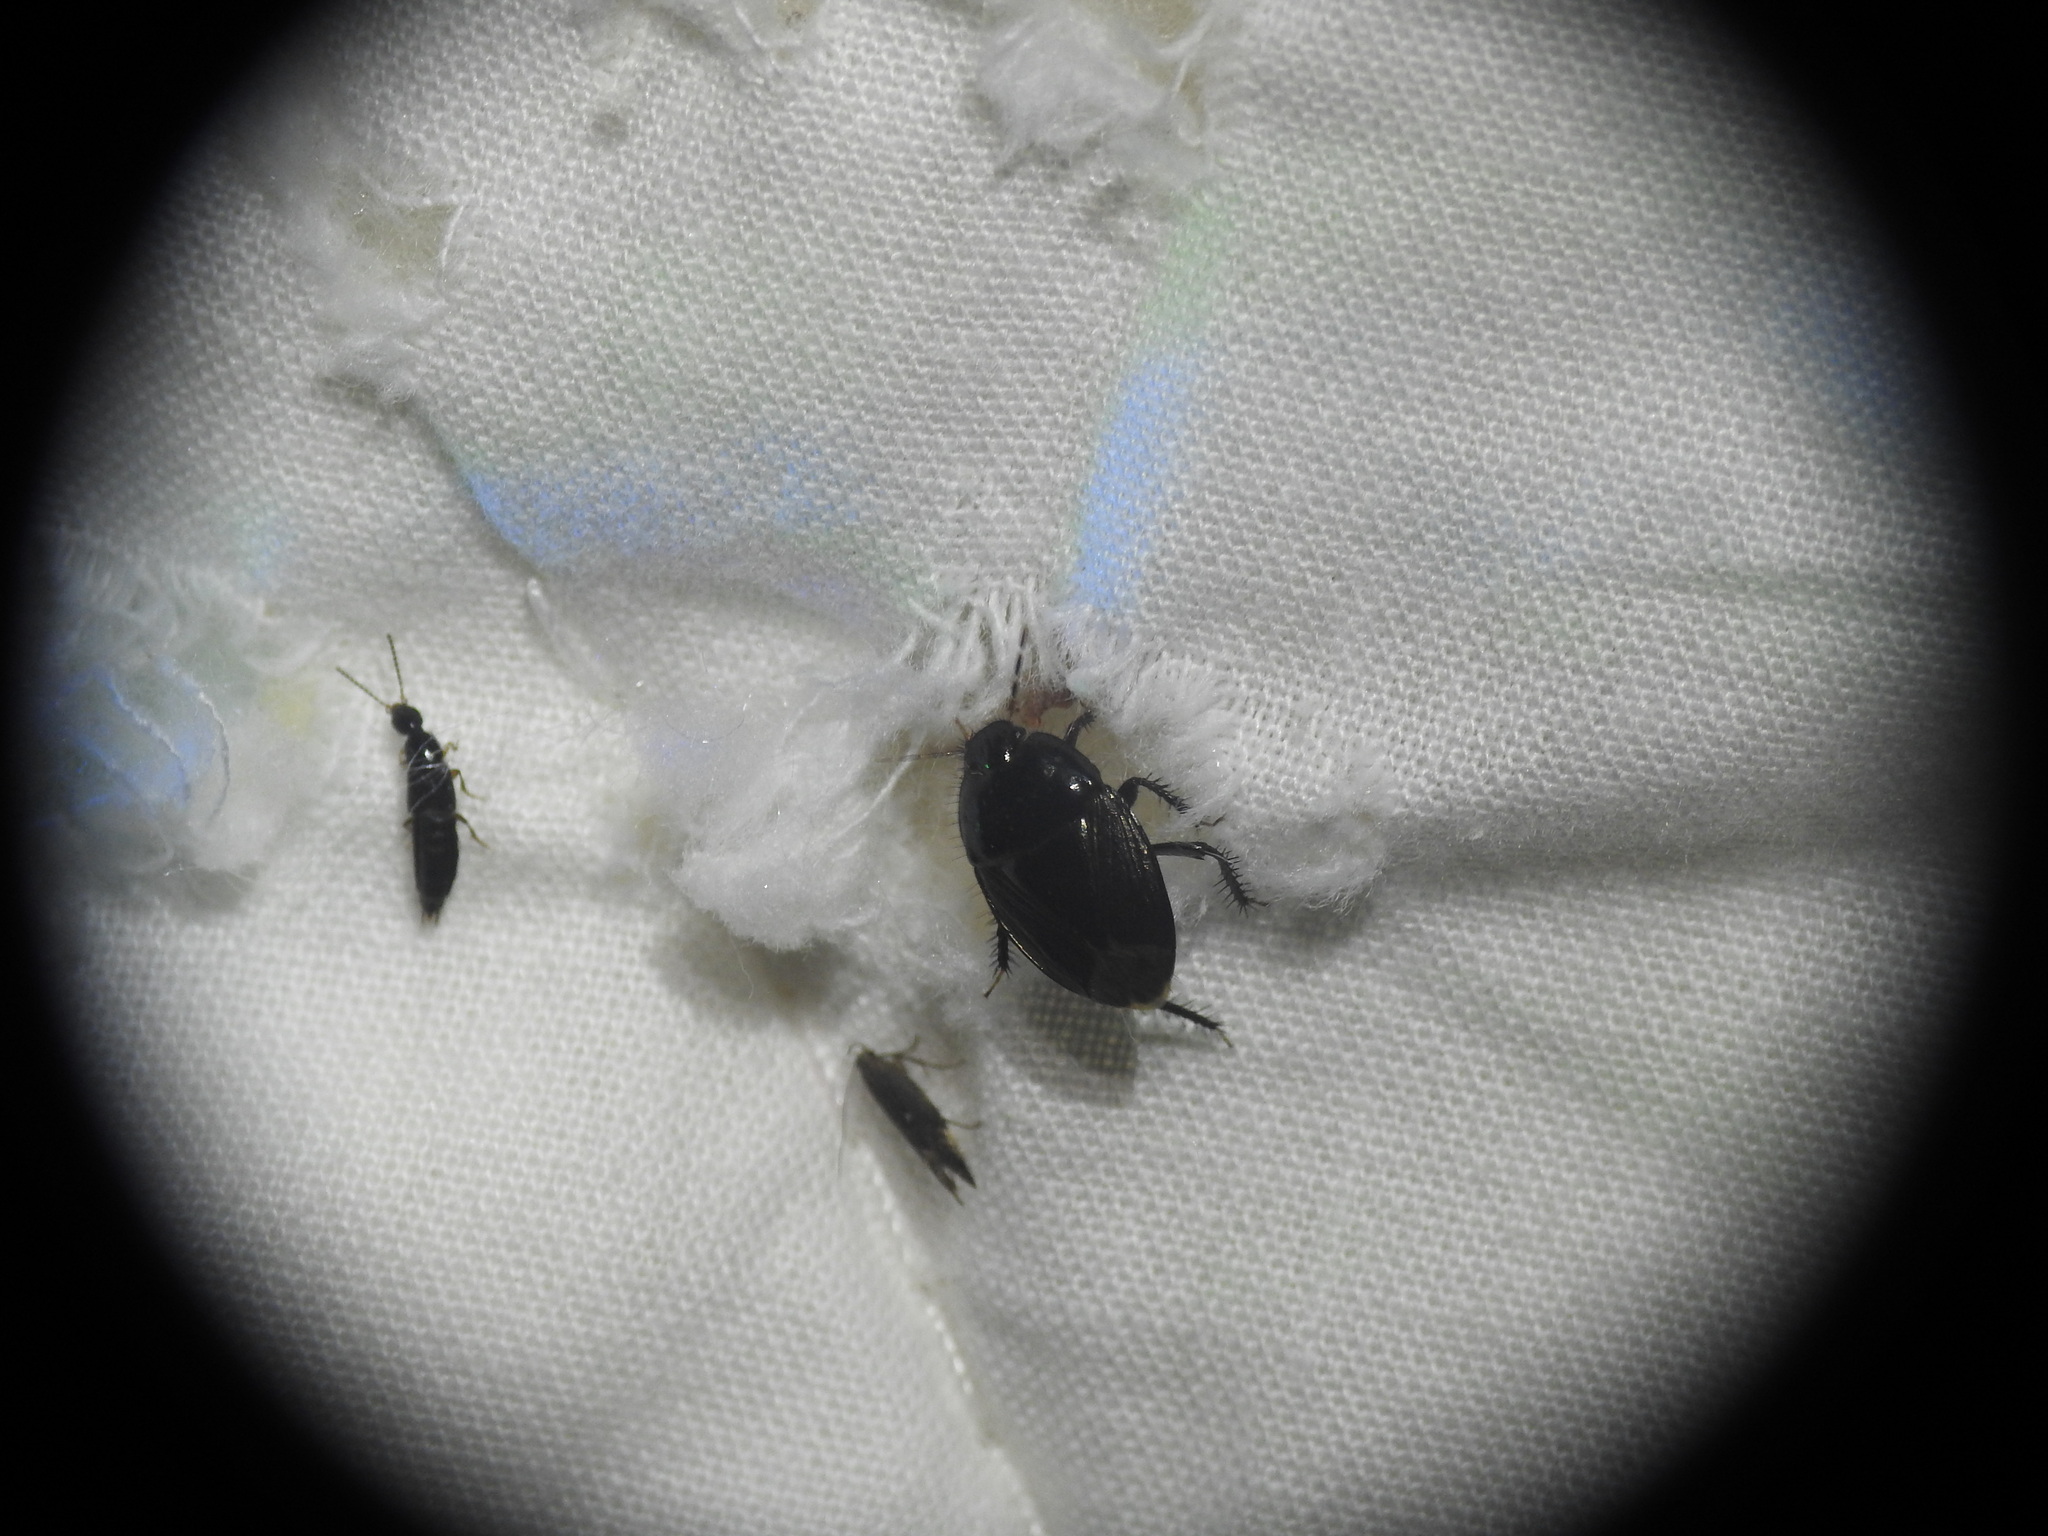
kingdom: Animalia
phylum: Arthropoda
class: Insecta
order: Hemiptera
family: Cydnidae
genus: Macroscytus
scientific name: Macroscytus brunneus
